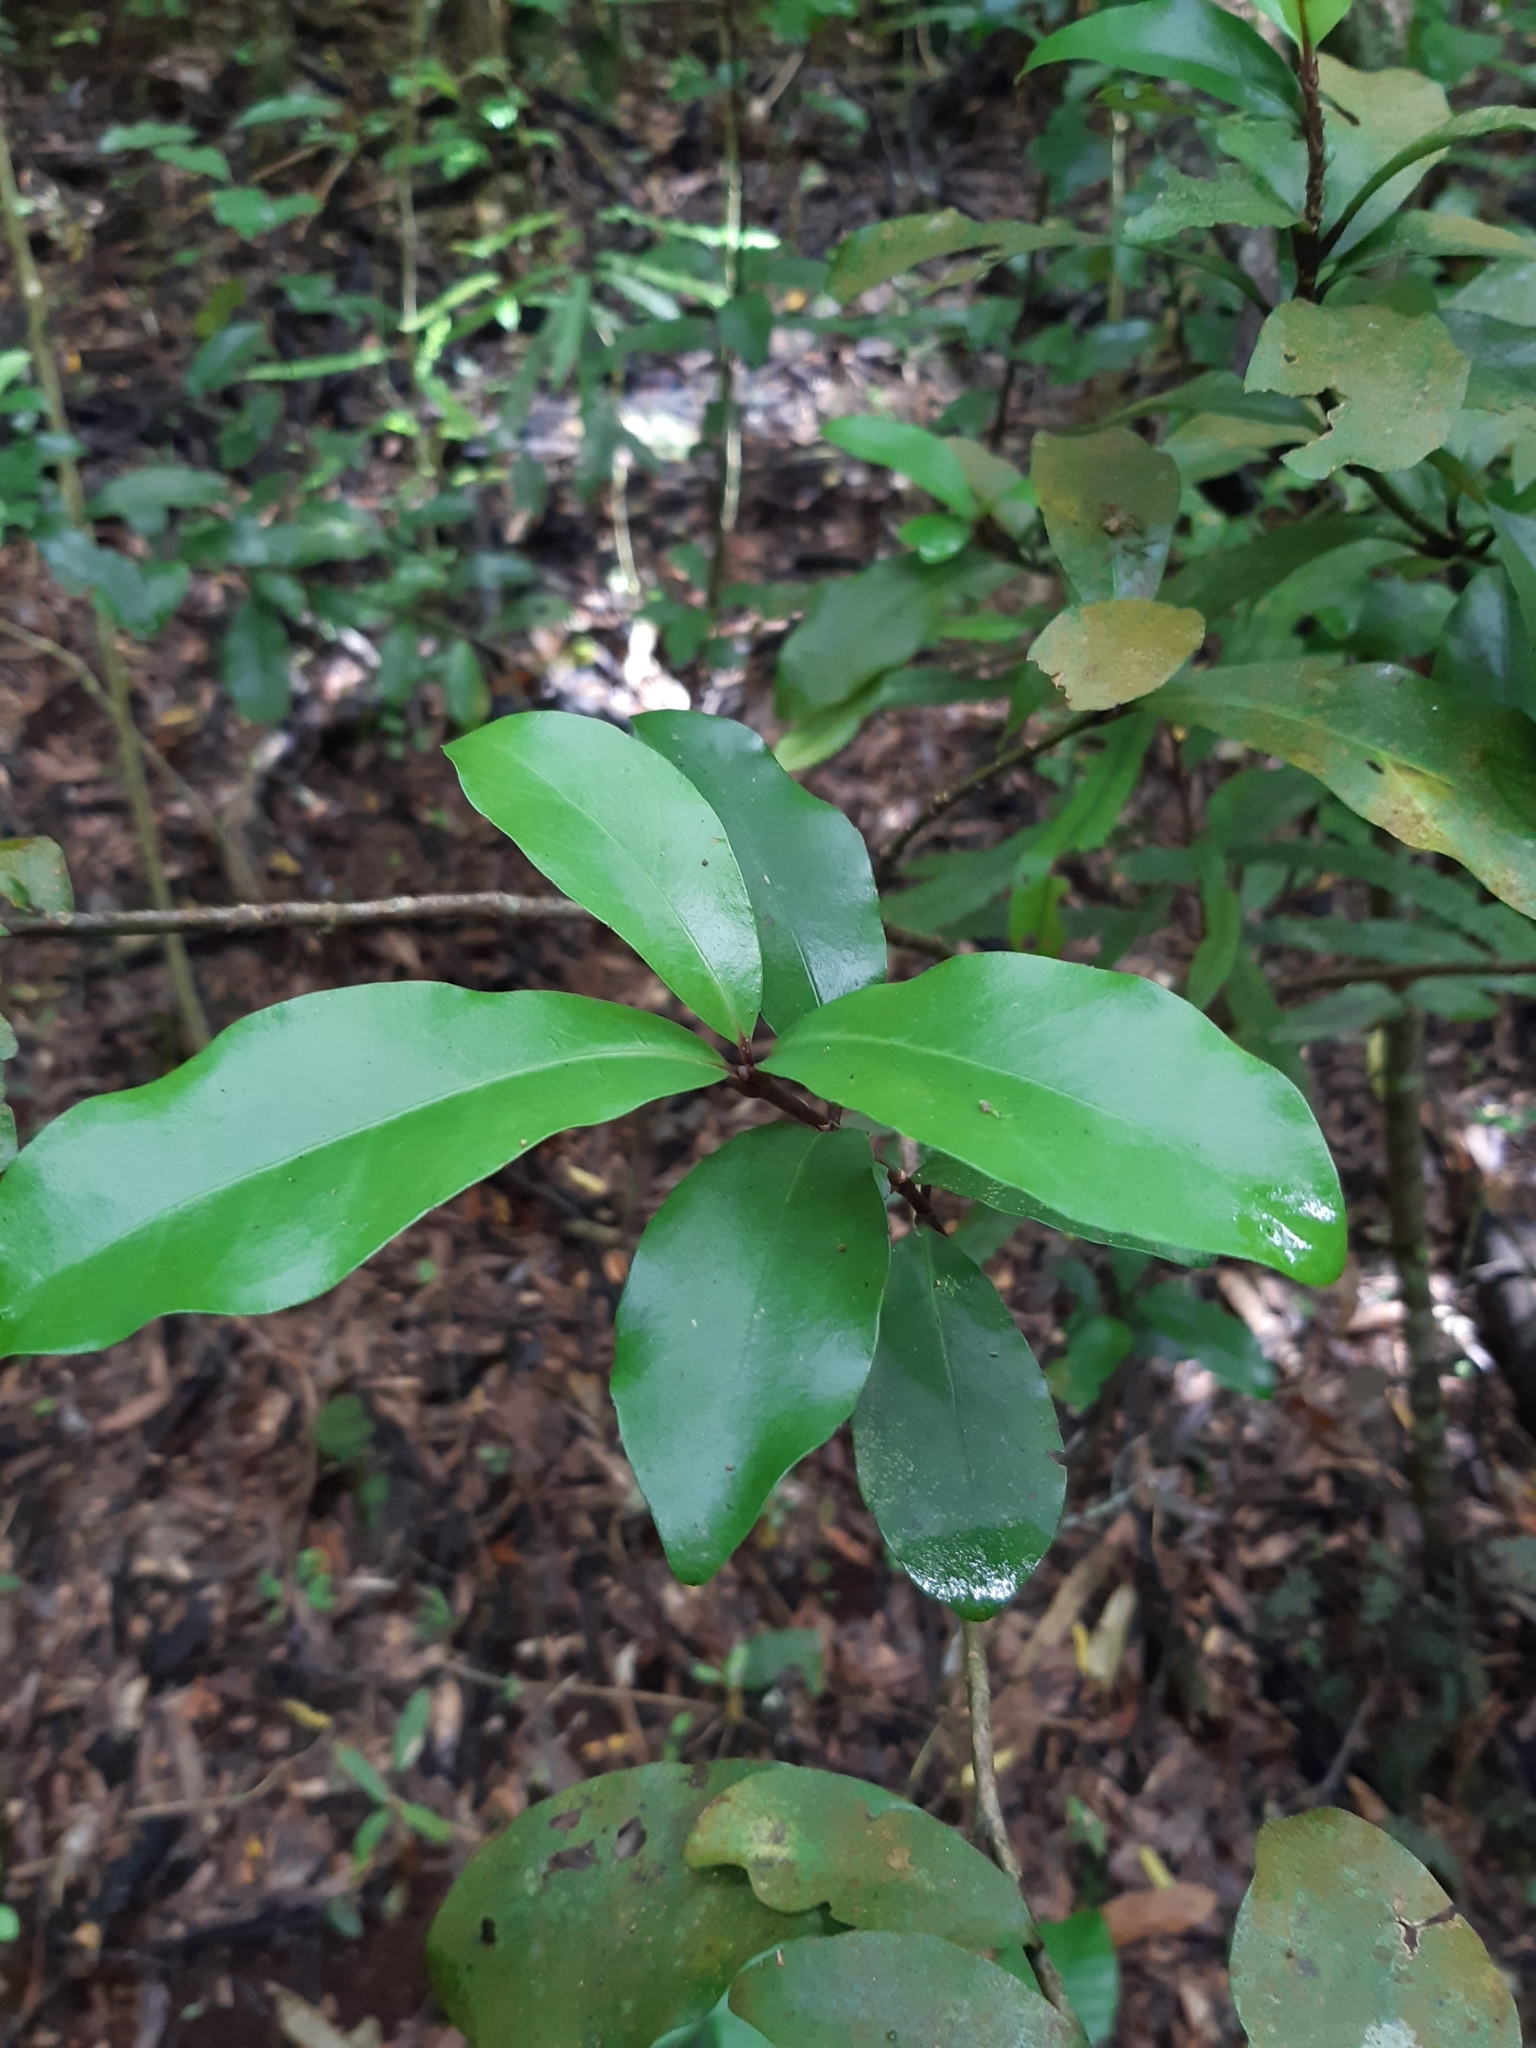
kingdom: Plantae
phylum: Tracheophyta
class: Magnoliopsida
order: Asterales
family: Alseuosmiaceae
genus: Alseuosmia
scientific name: Alseuosmia macrophylla
